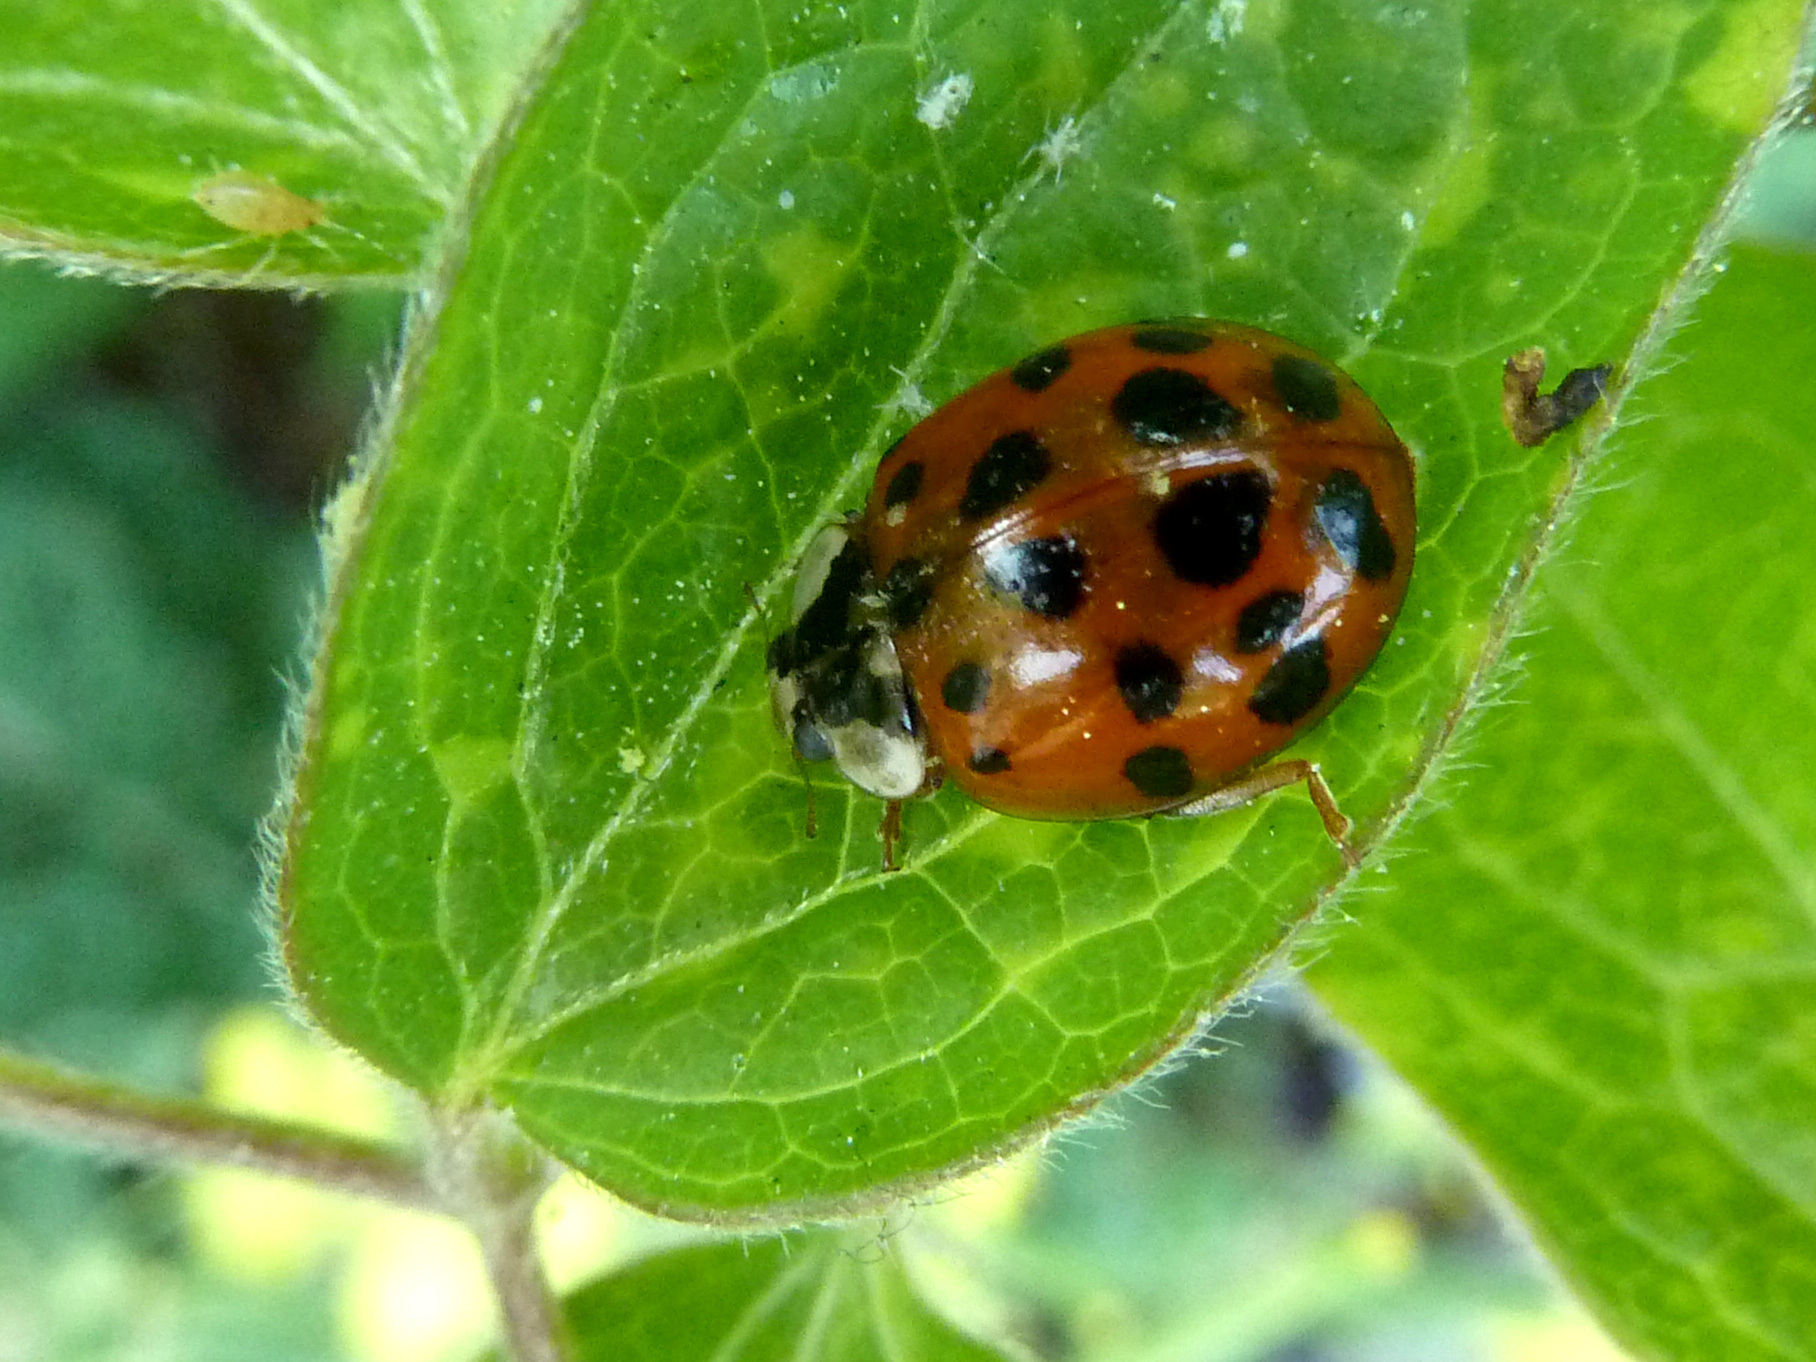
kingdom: Animalia
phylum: Arthropoda
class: Insecta
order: Coleoptera
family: Coccinellidae
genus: Harmonia
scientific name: Harmonia axyridis
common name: Harlequin ladybird
